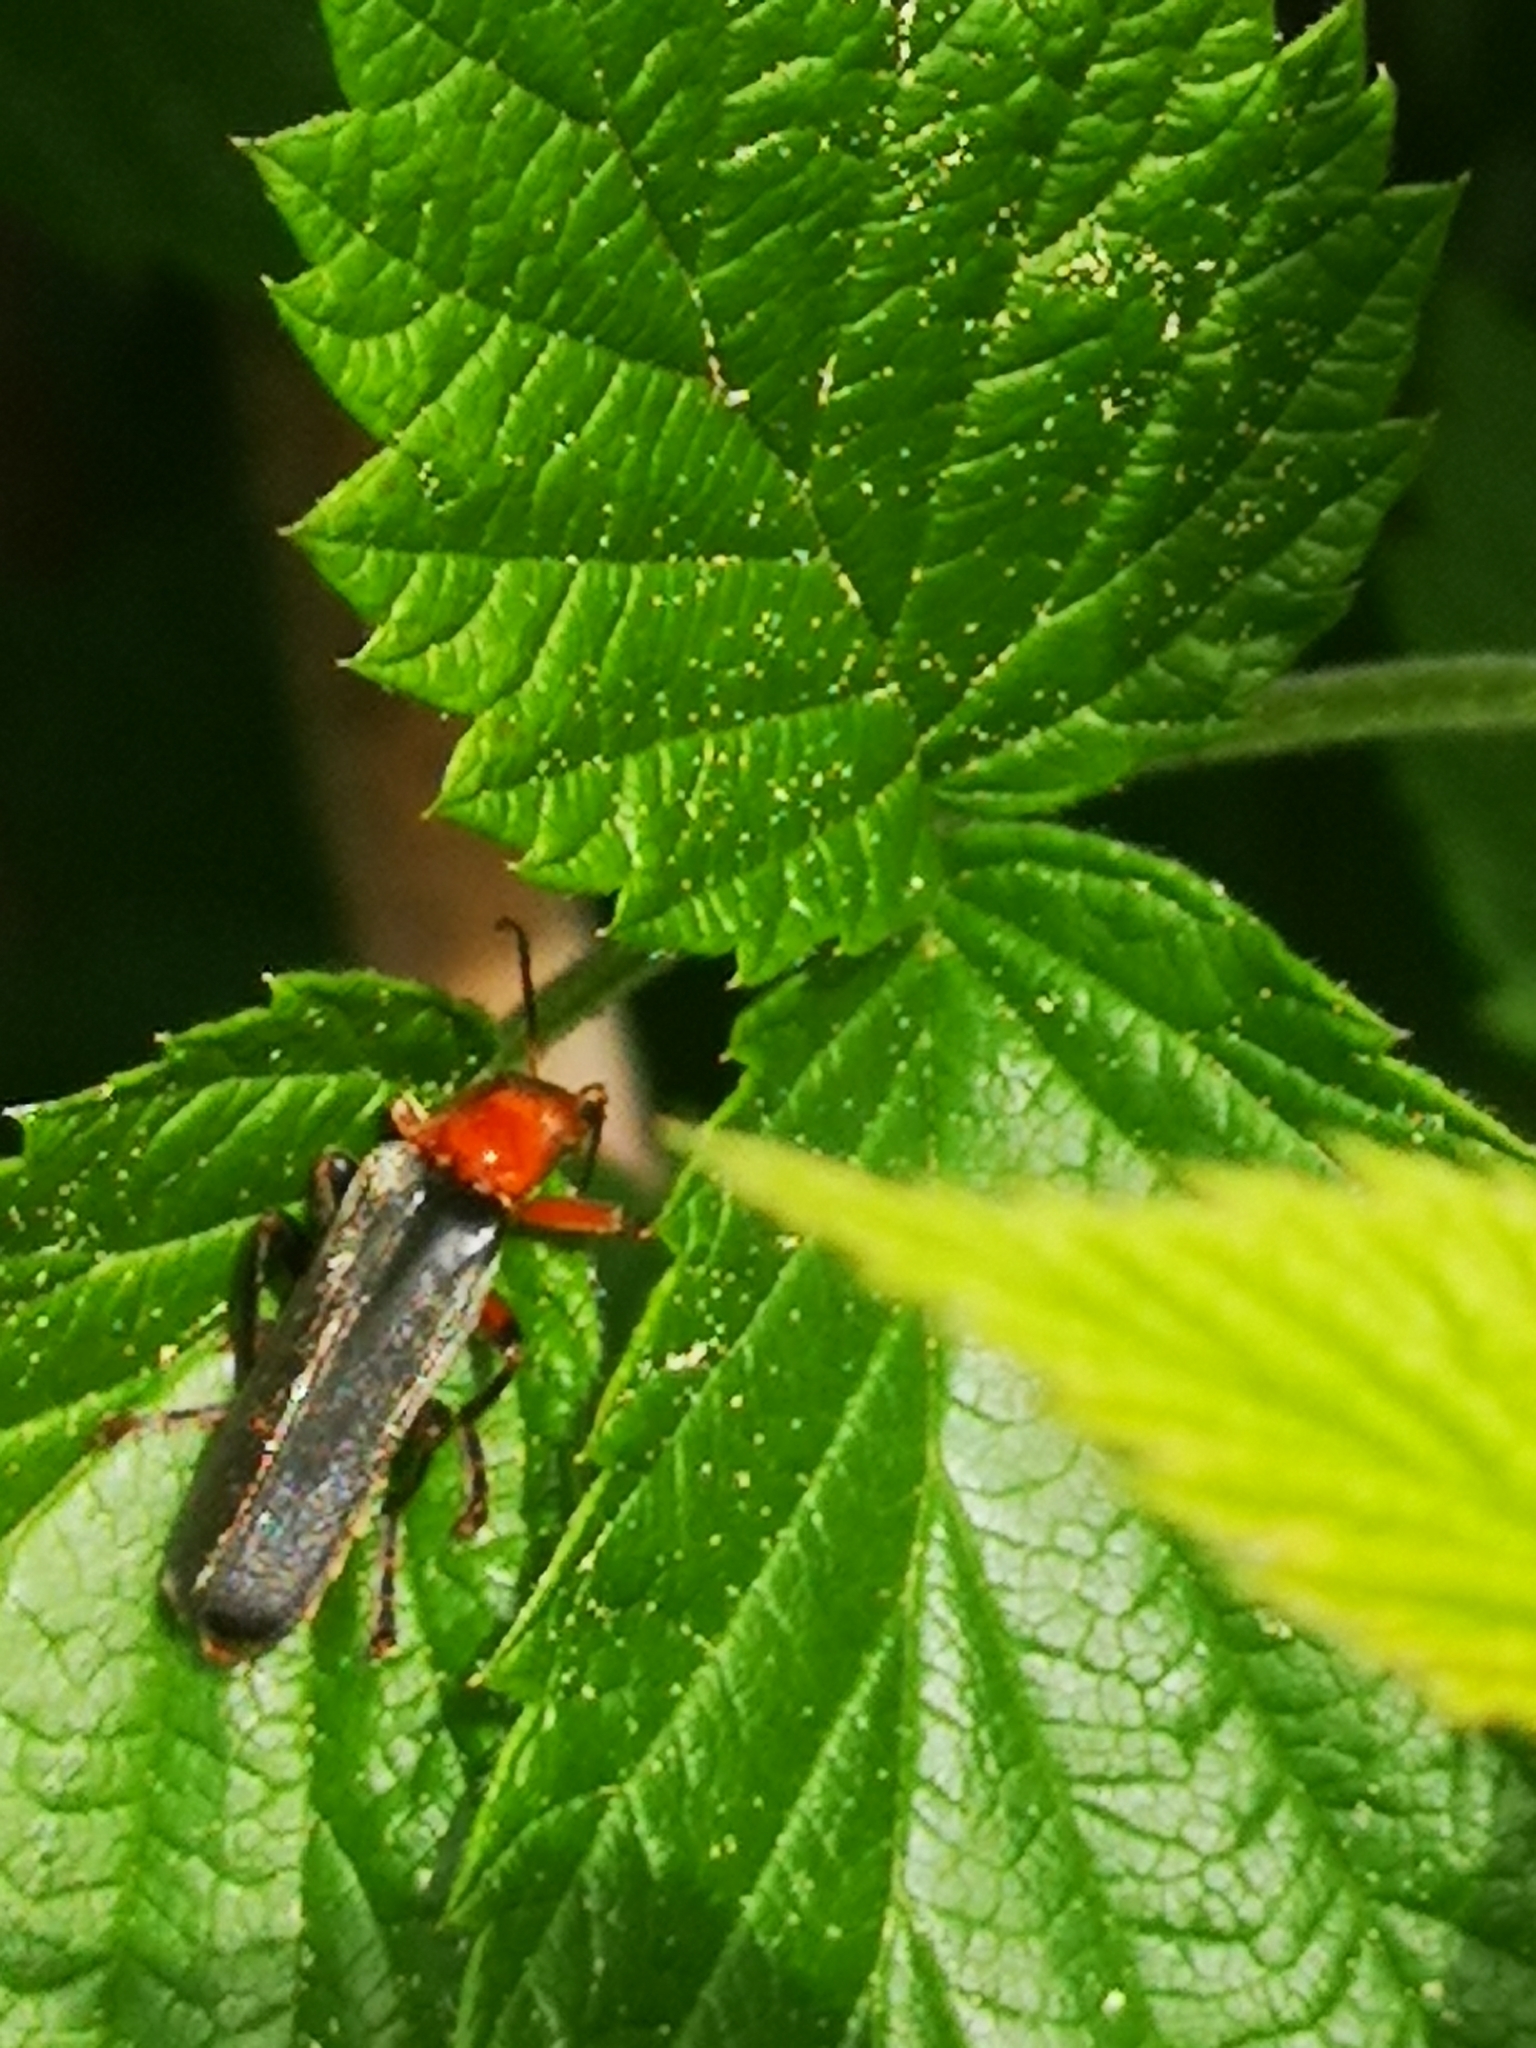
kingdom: Animalia
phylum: Arthropoda
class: Insecta
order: Coleoptera
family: Cantharidae
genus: Cantharis
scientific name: Cantharis livida
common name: Livid soldier beetle
